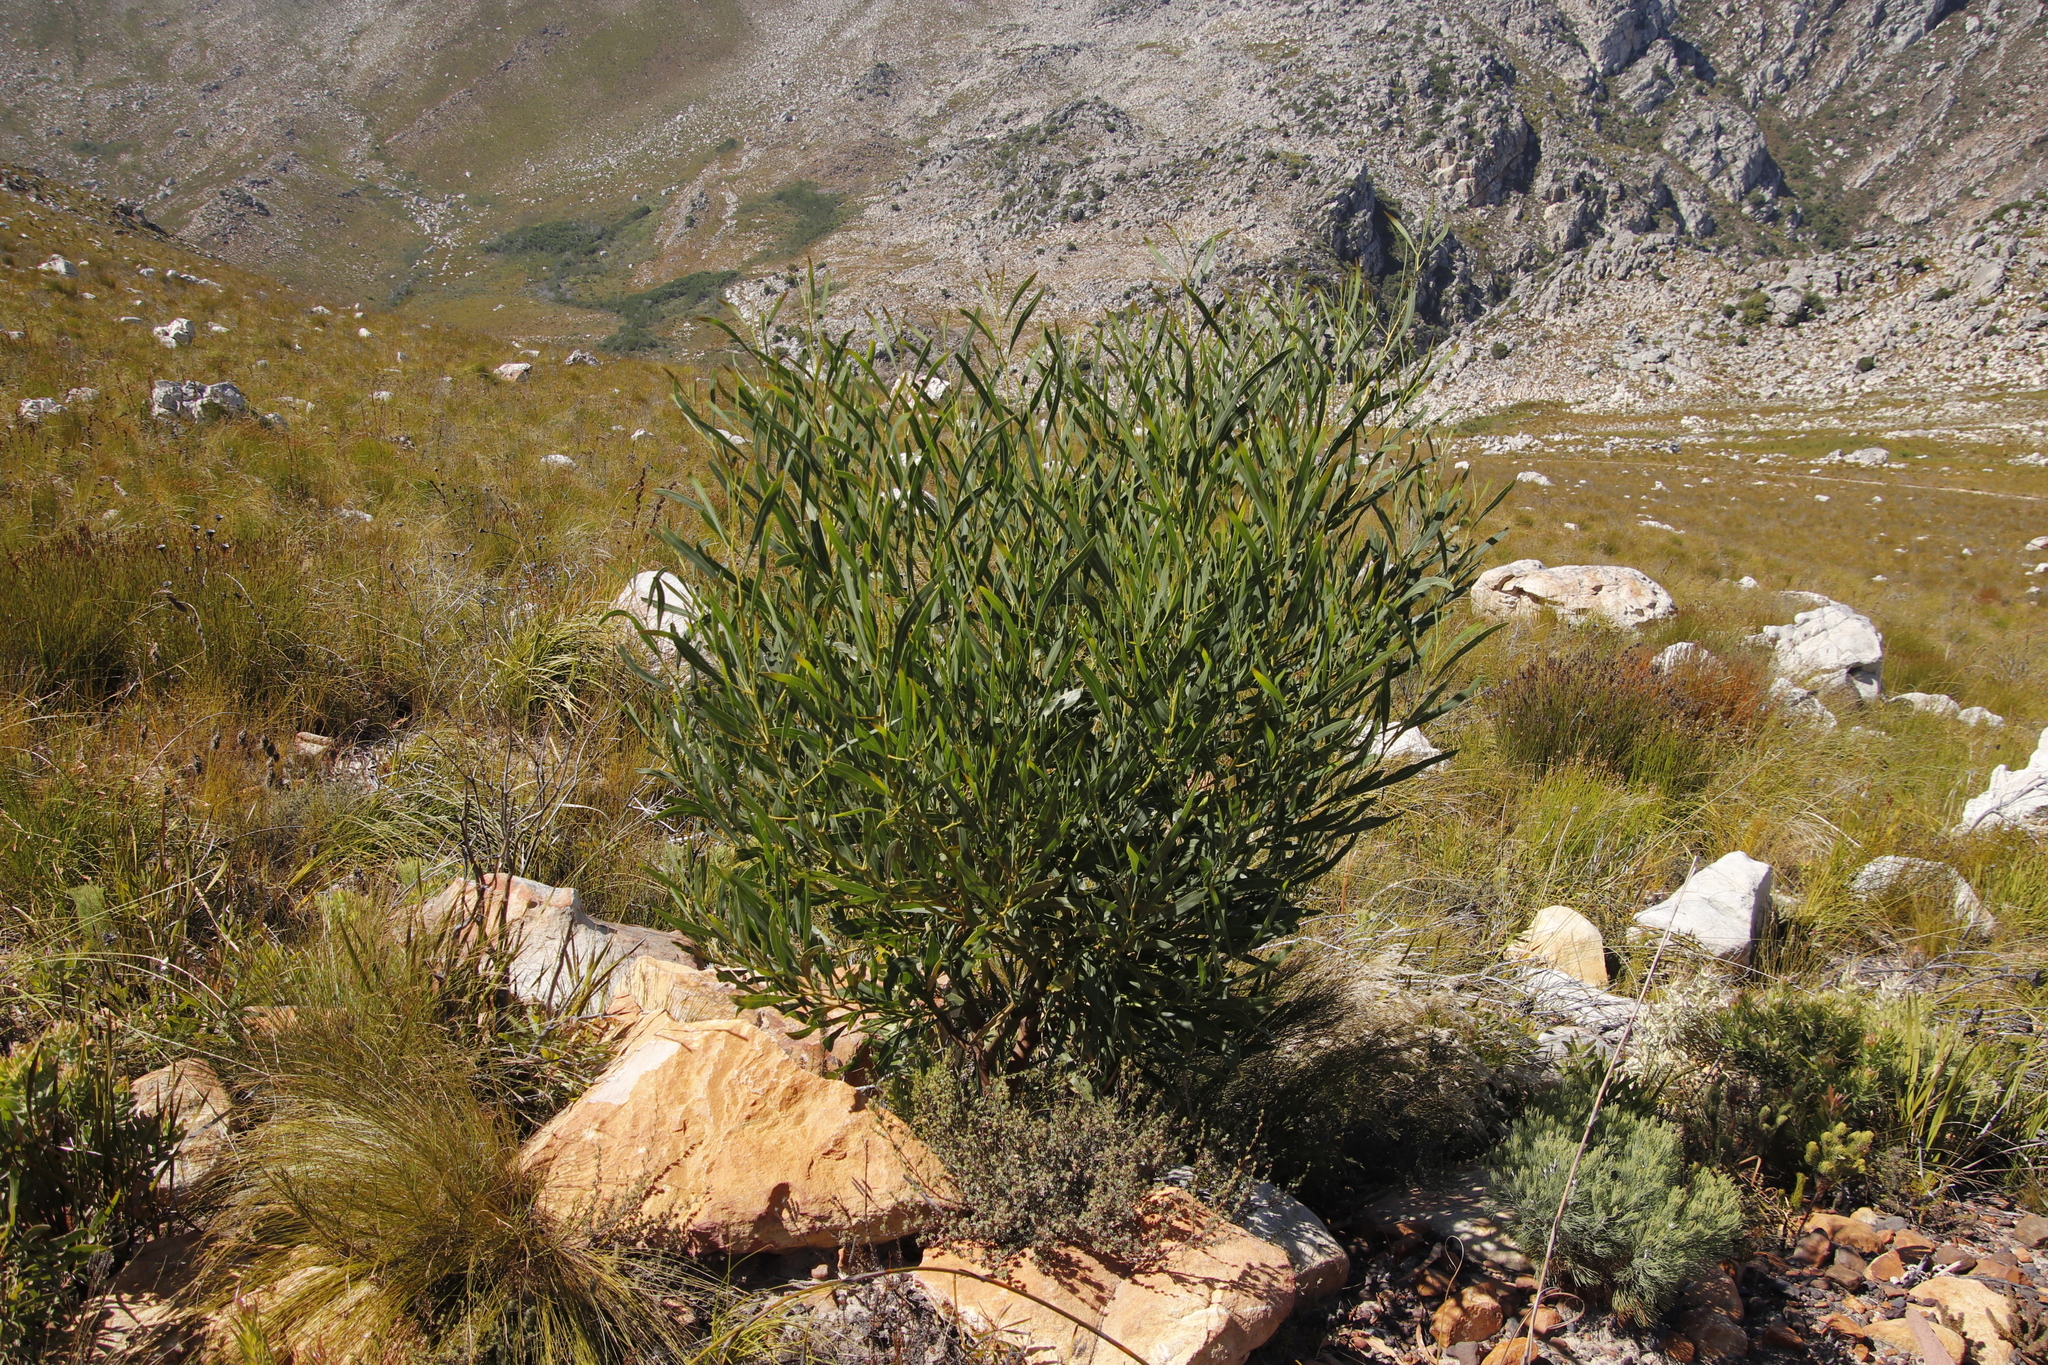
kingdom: Plantae
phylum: Tracheophyta
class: Magnoliopsida
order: Fabales
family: Fabaceae
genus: Acacia
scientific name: Acacia saligna
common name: Orange wattle
